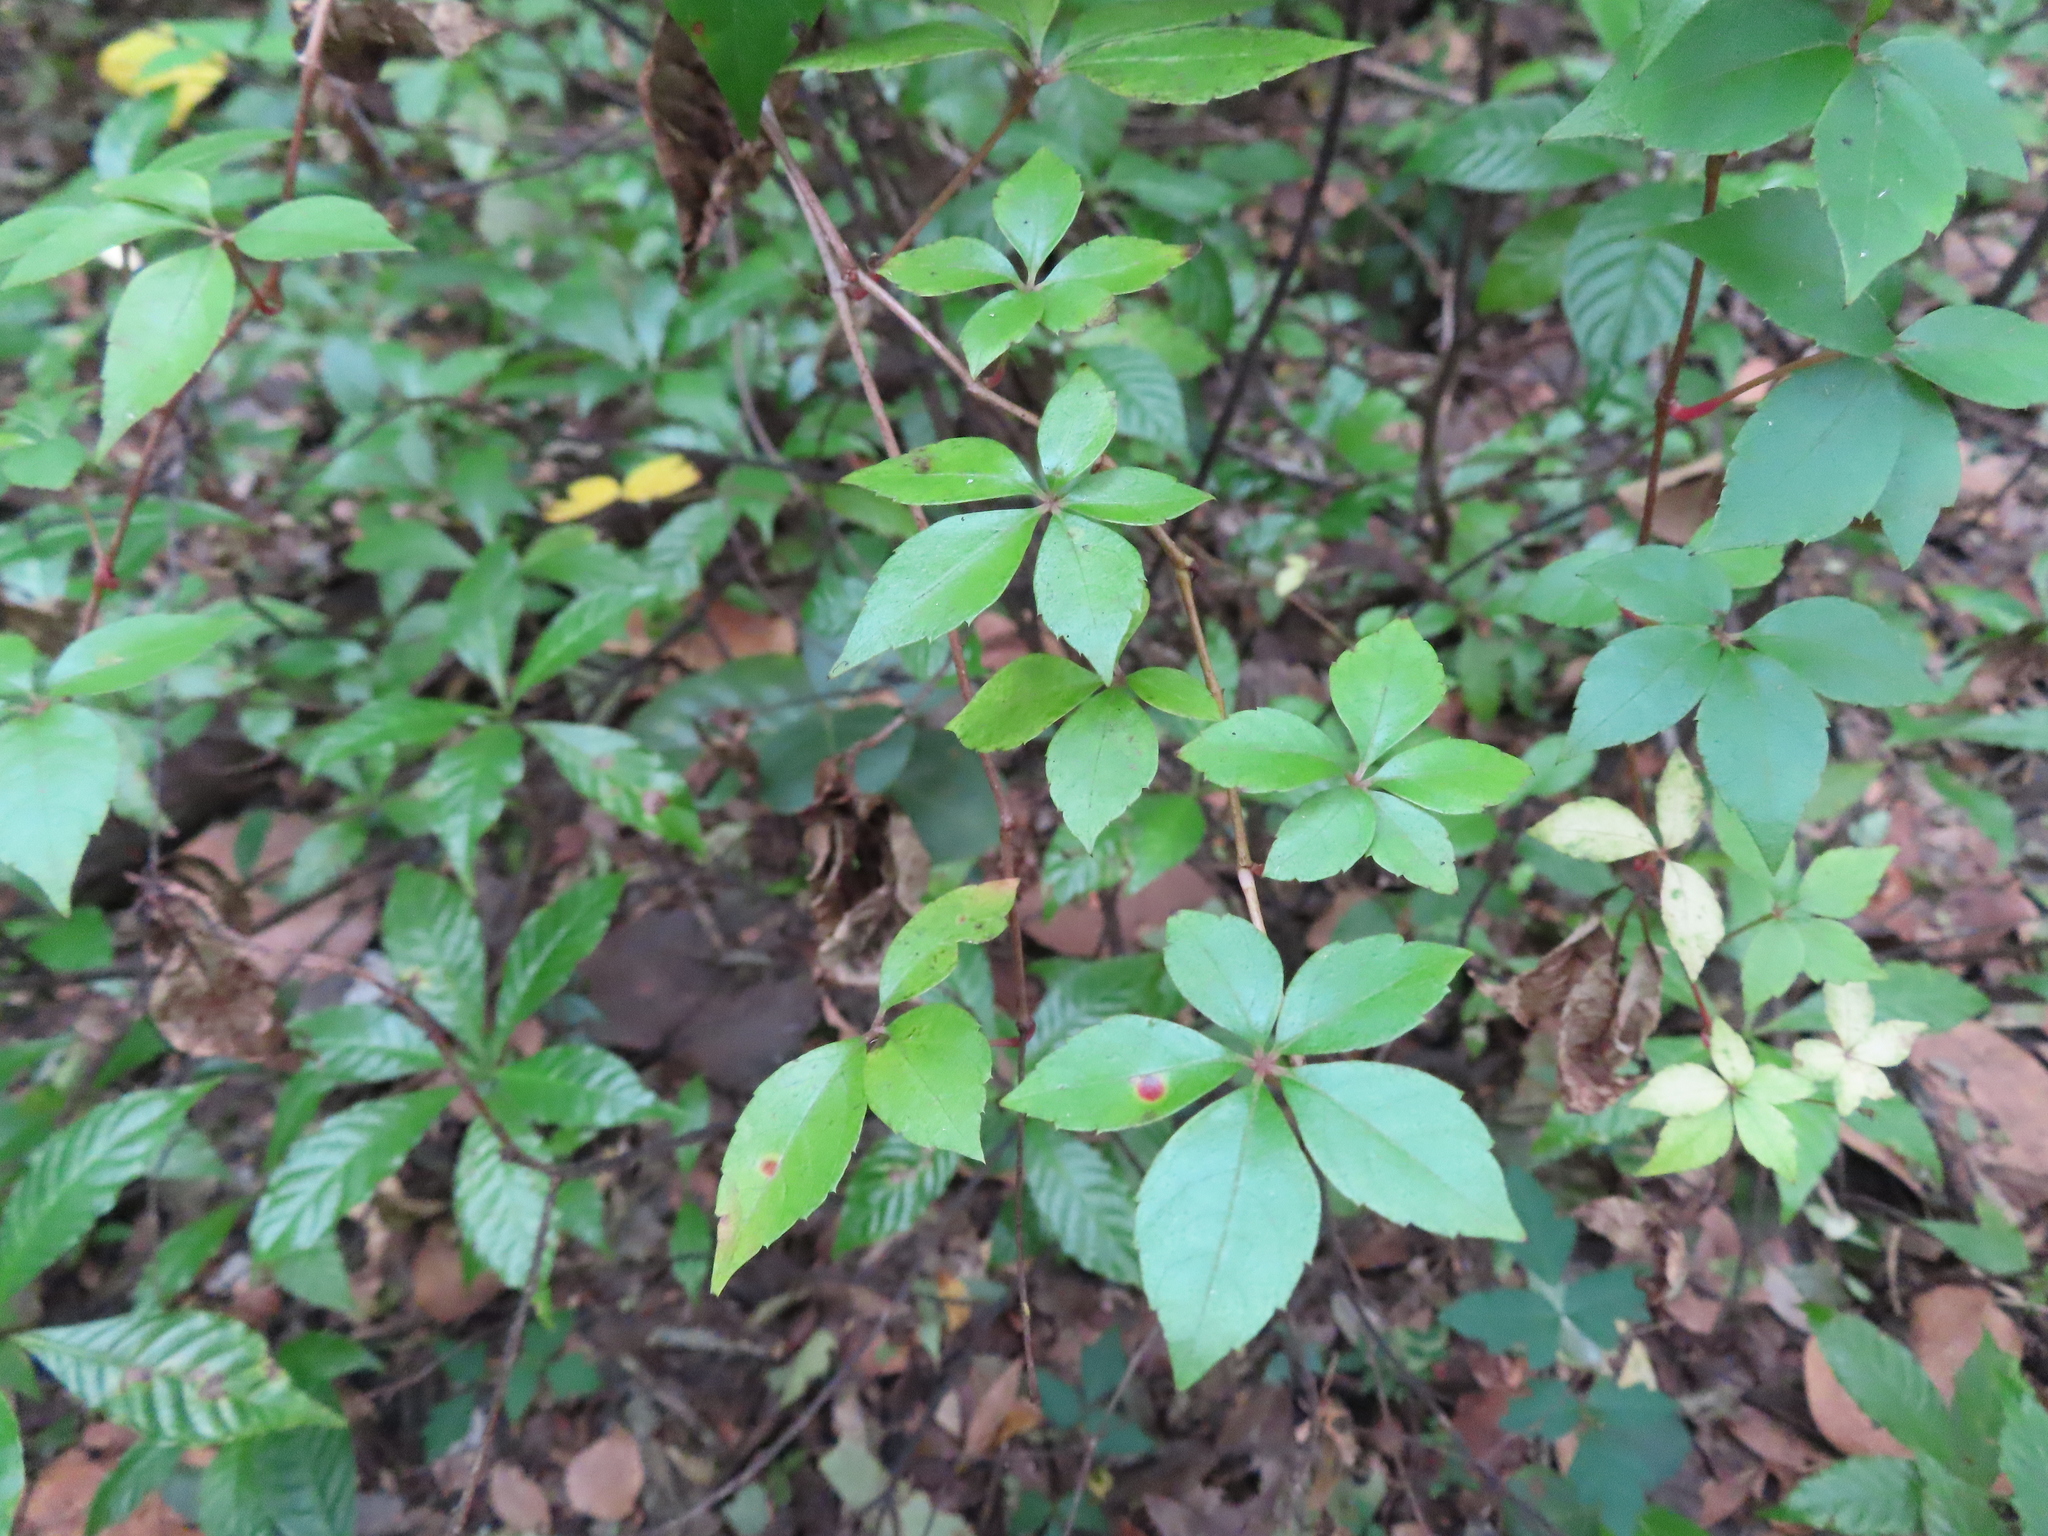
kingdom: Plantae
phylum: Tracheophyta
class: Magnoliopsida
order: Vitales
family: Vitaceae
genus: Parthenocissus
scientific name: Parthenocissus quinquefolia
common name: Virginia-creeper
